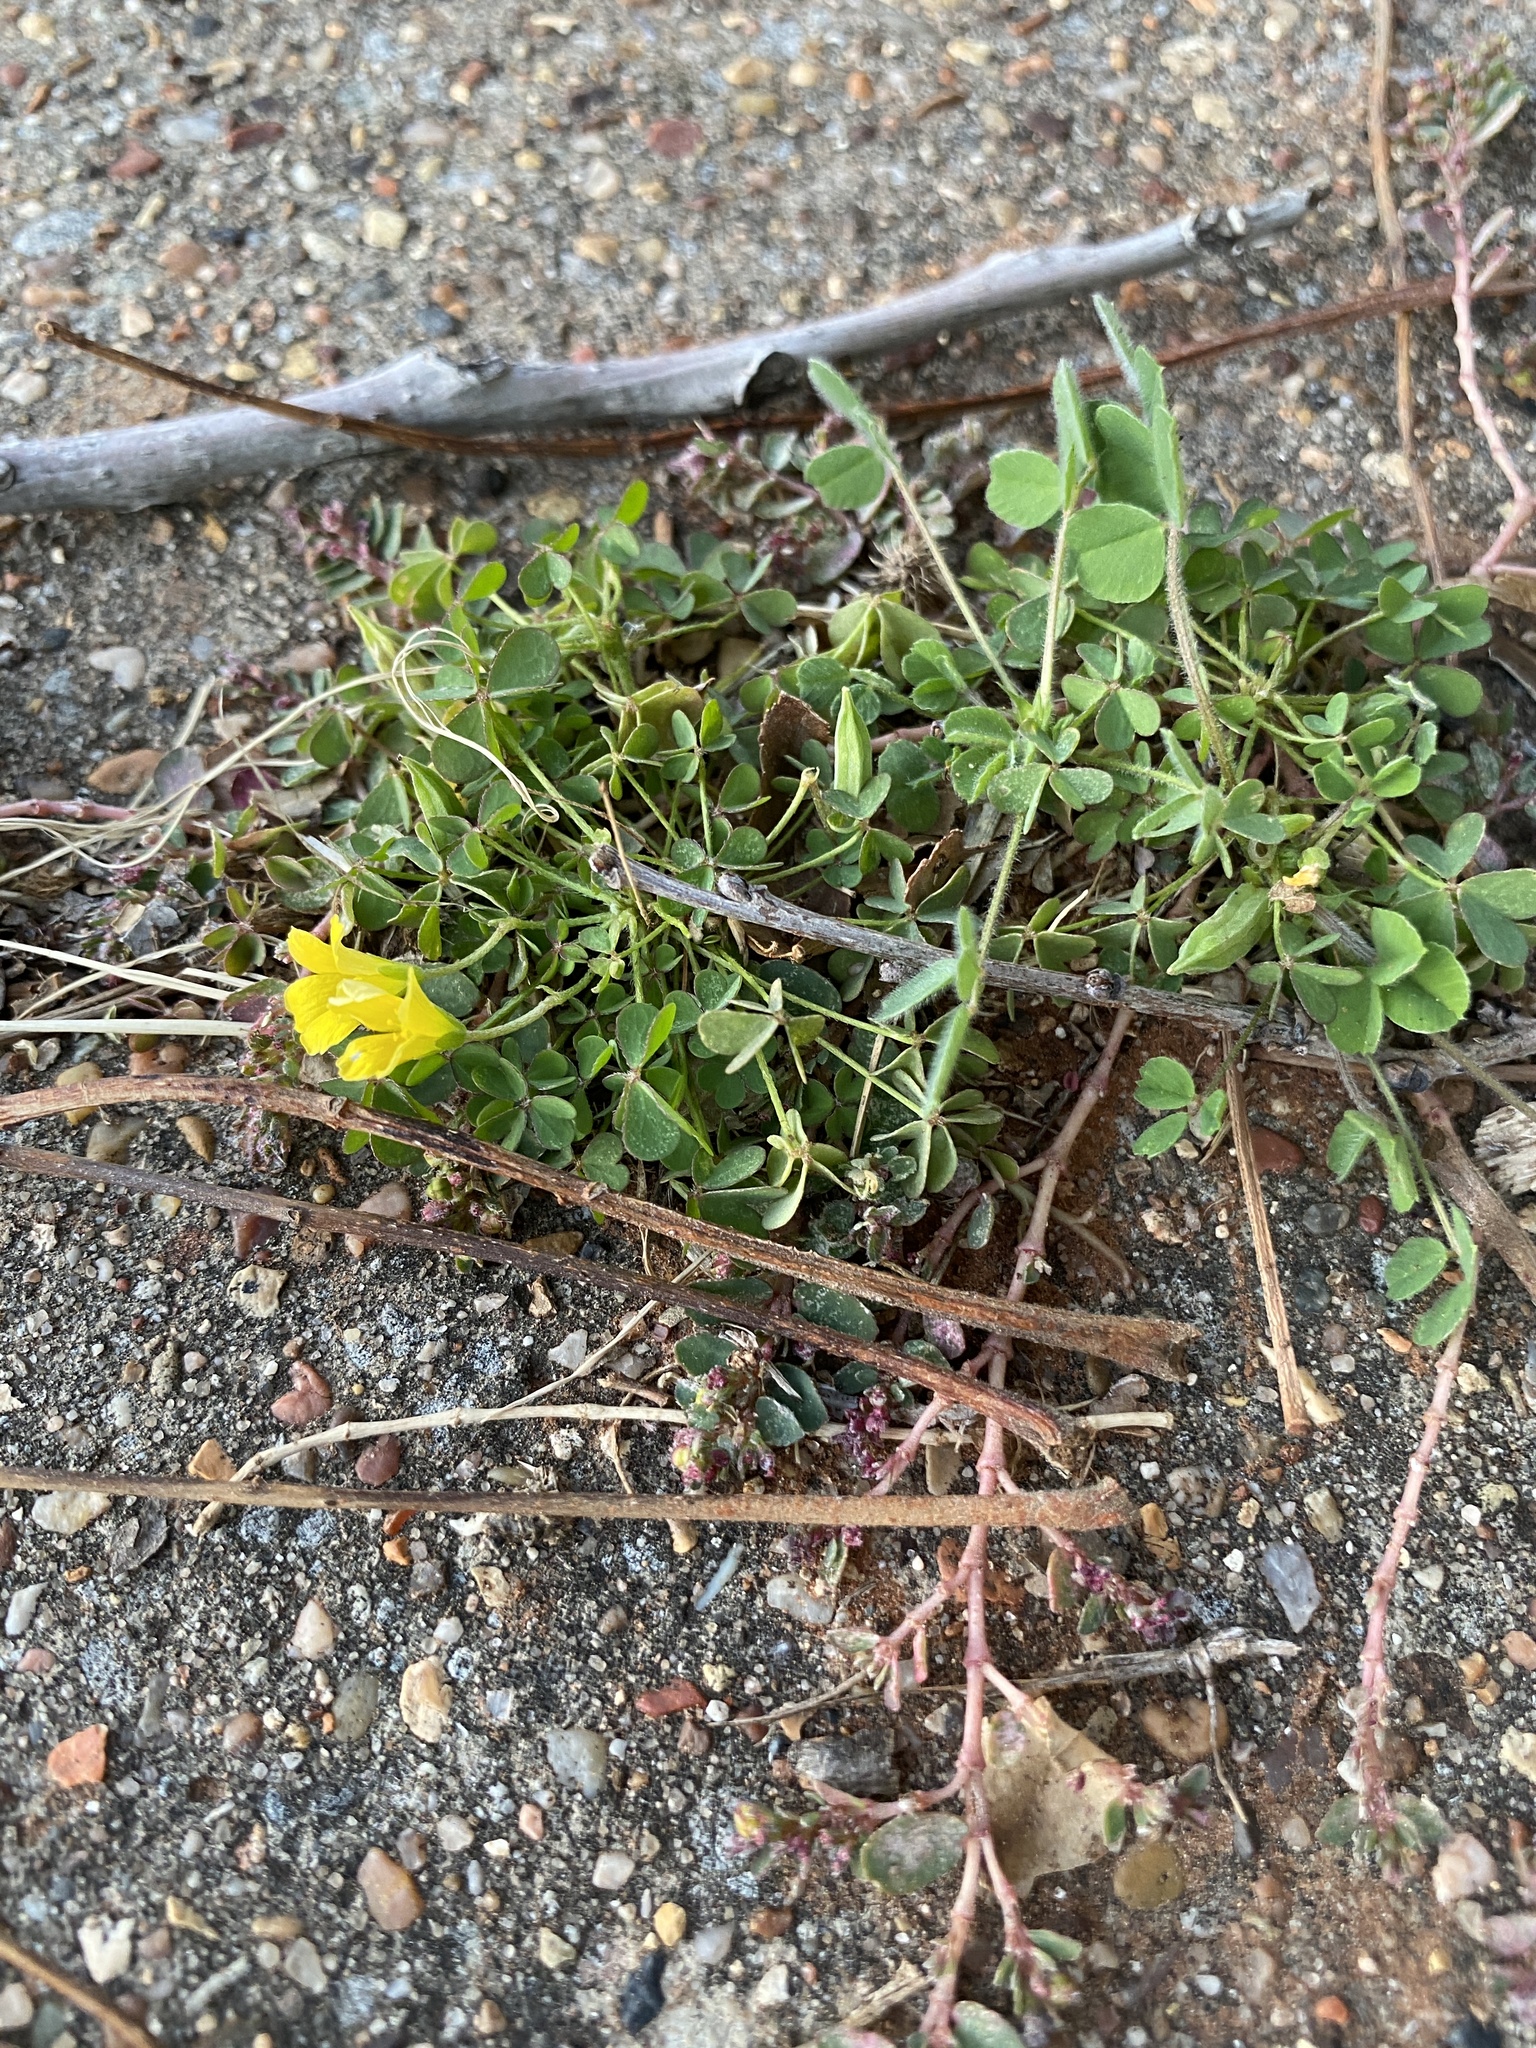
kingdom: Plantae
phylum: Tracheophyta
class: Magnoliopsida
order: Oxalidales
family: Oxalidaceae
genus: Oxalis
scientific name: Oxalis corniculata
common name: Procumbent yellow-sorrel
